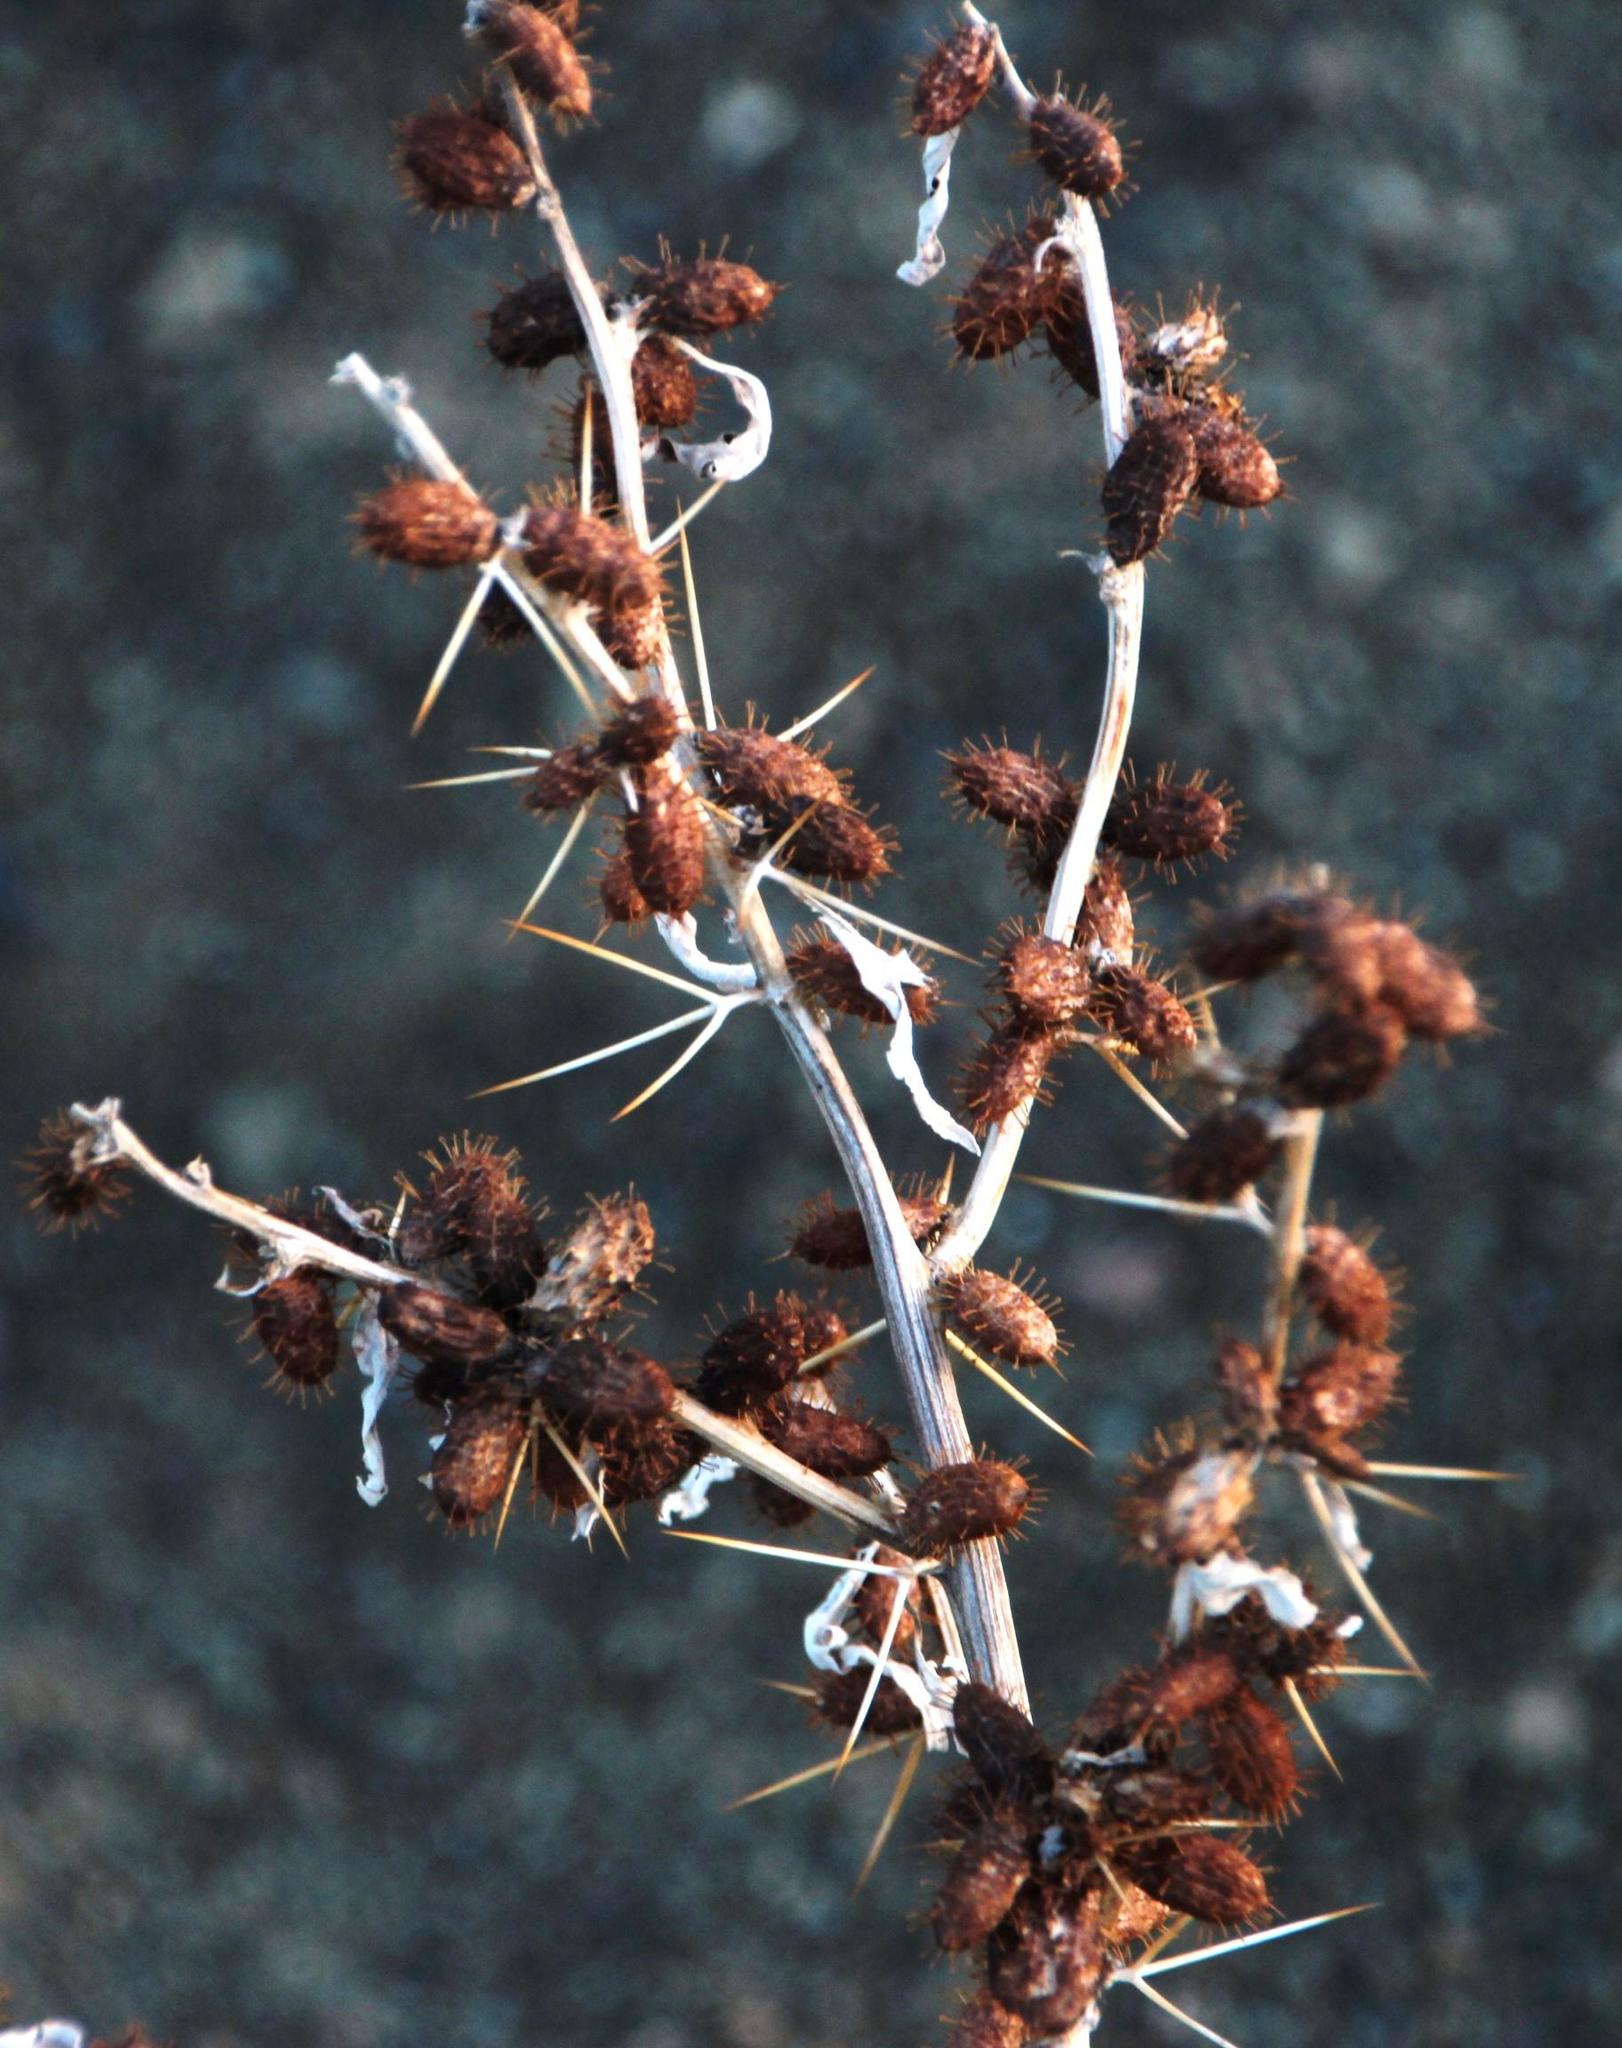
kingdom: Plantae
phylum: Tracheophyta
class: Magnoliopsida
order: Asterales
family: Asteraceae
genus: Xanthium
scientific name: Xanthium spinosum
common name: Spiny cocklebur
